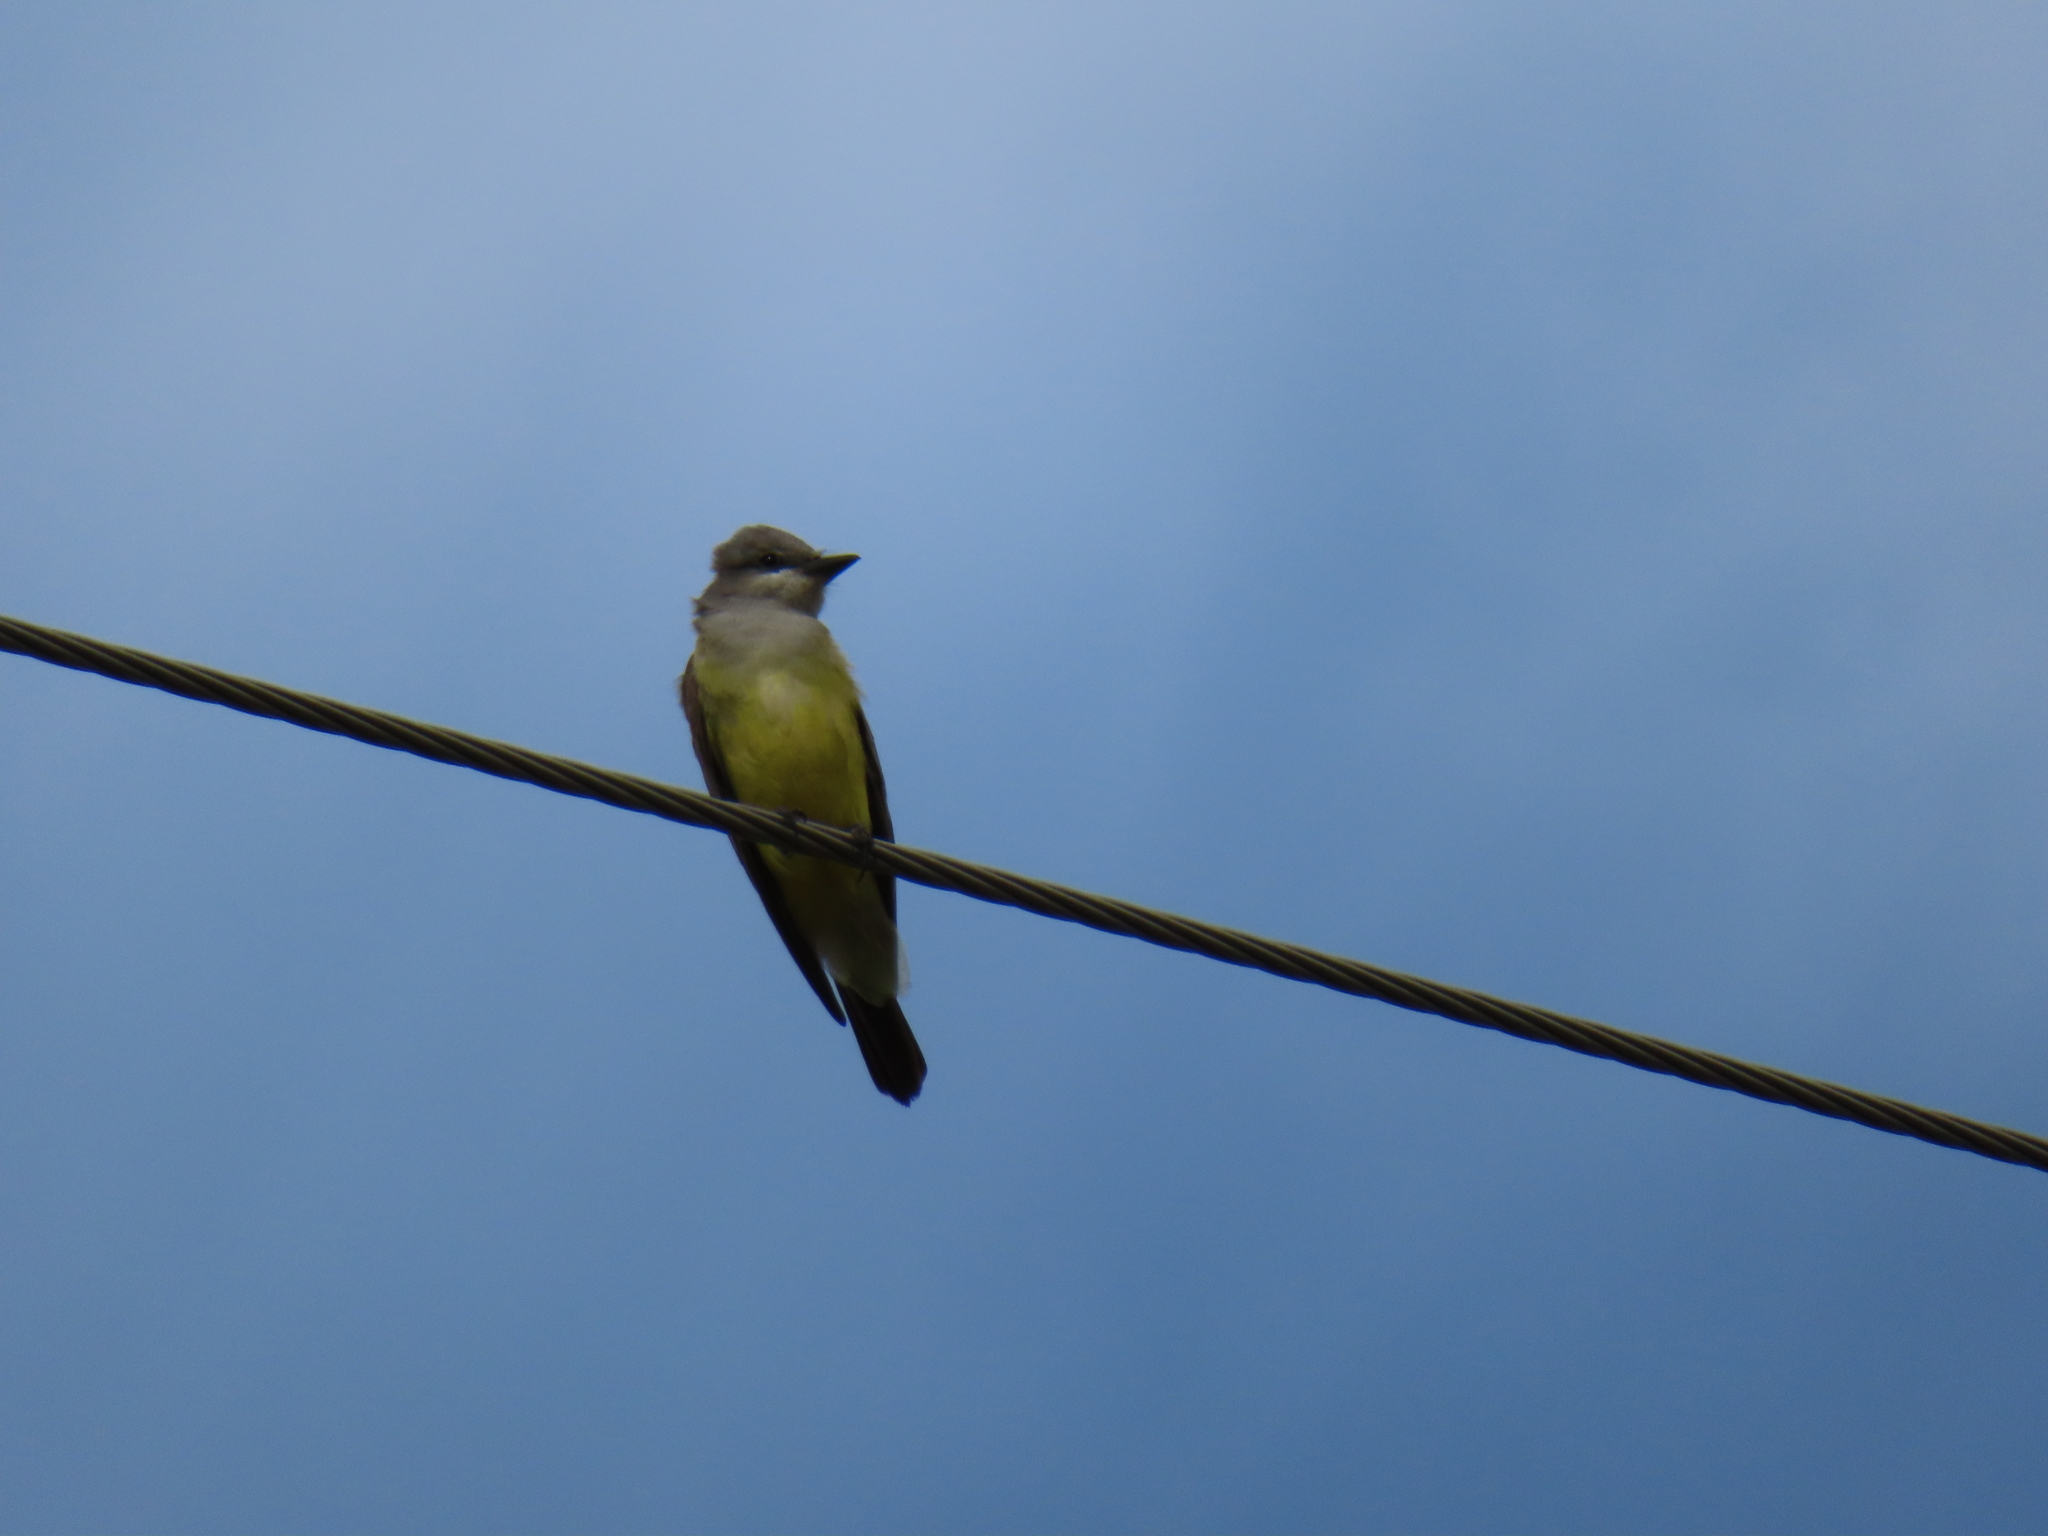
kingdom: Animalia
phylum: Chordata
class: Aves
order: Passeriformes
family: Tyrannidae
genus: Tyrannus
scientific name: Tyrannus verticalis
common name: Western kingbird
